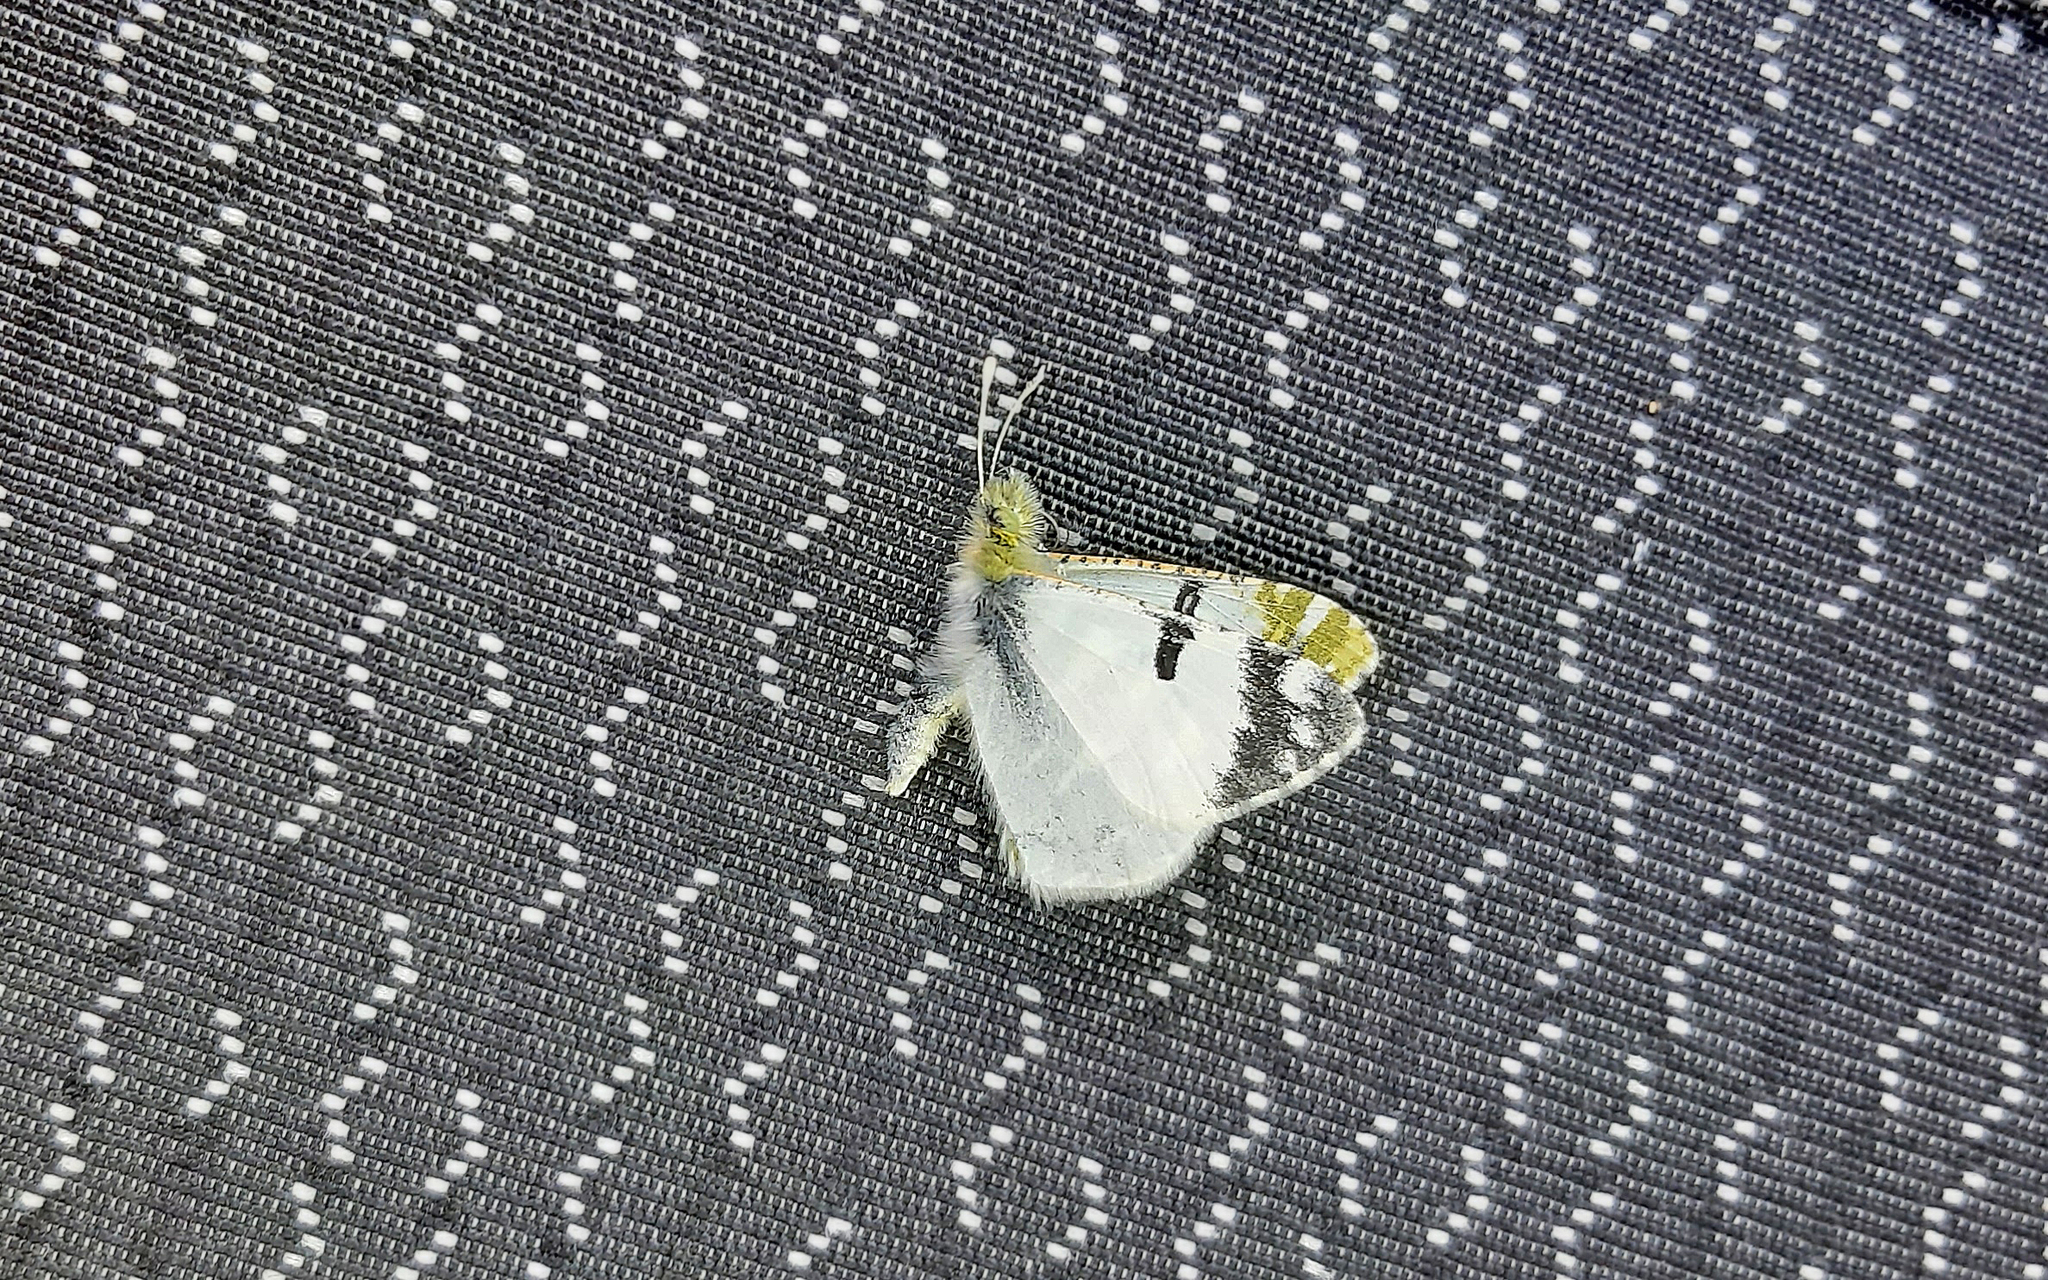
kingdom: Animalia
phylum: Arthropoda
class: Insecta
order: Lepidoptera
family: Pieridae
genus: Euchloe
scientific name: Euchloe hesperidum
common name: Canary green-striped white
